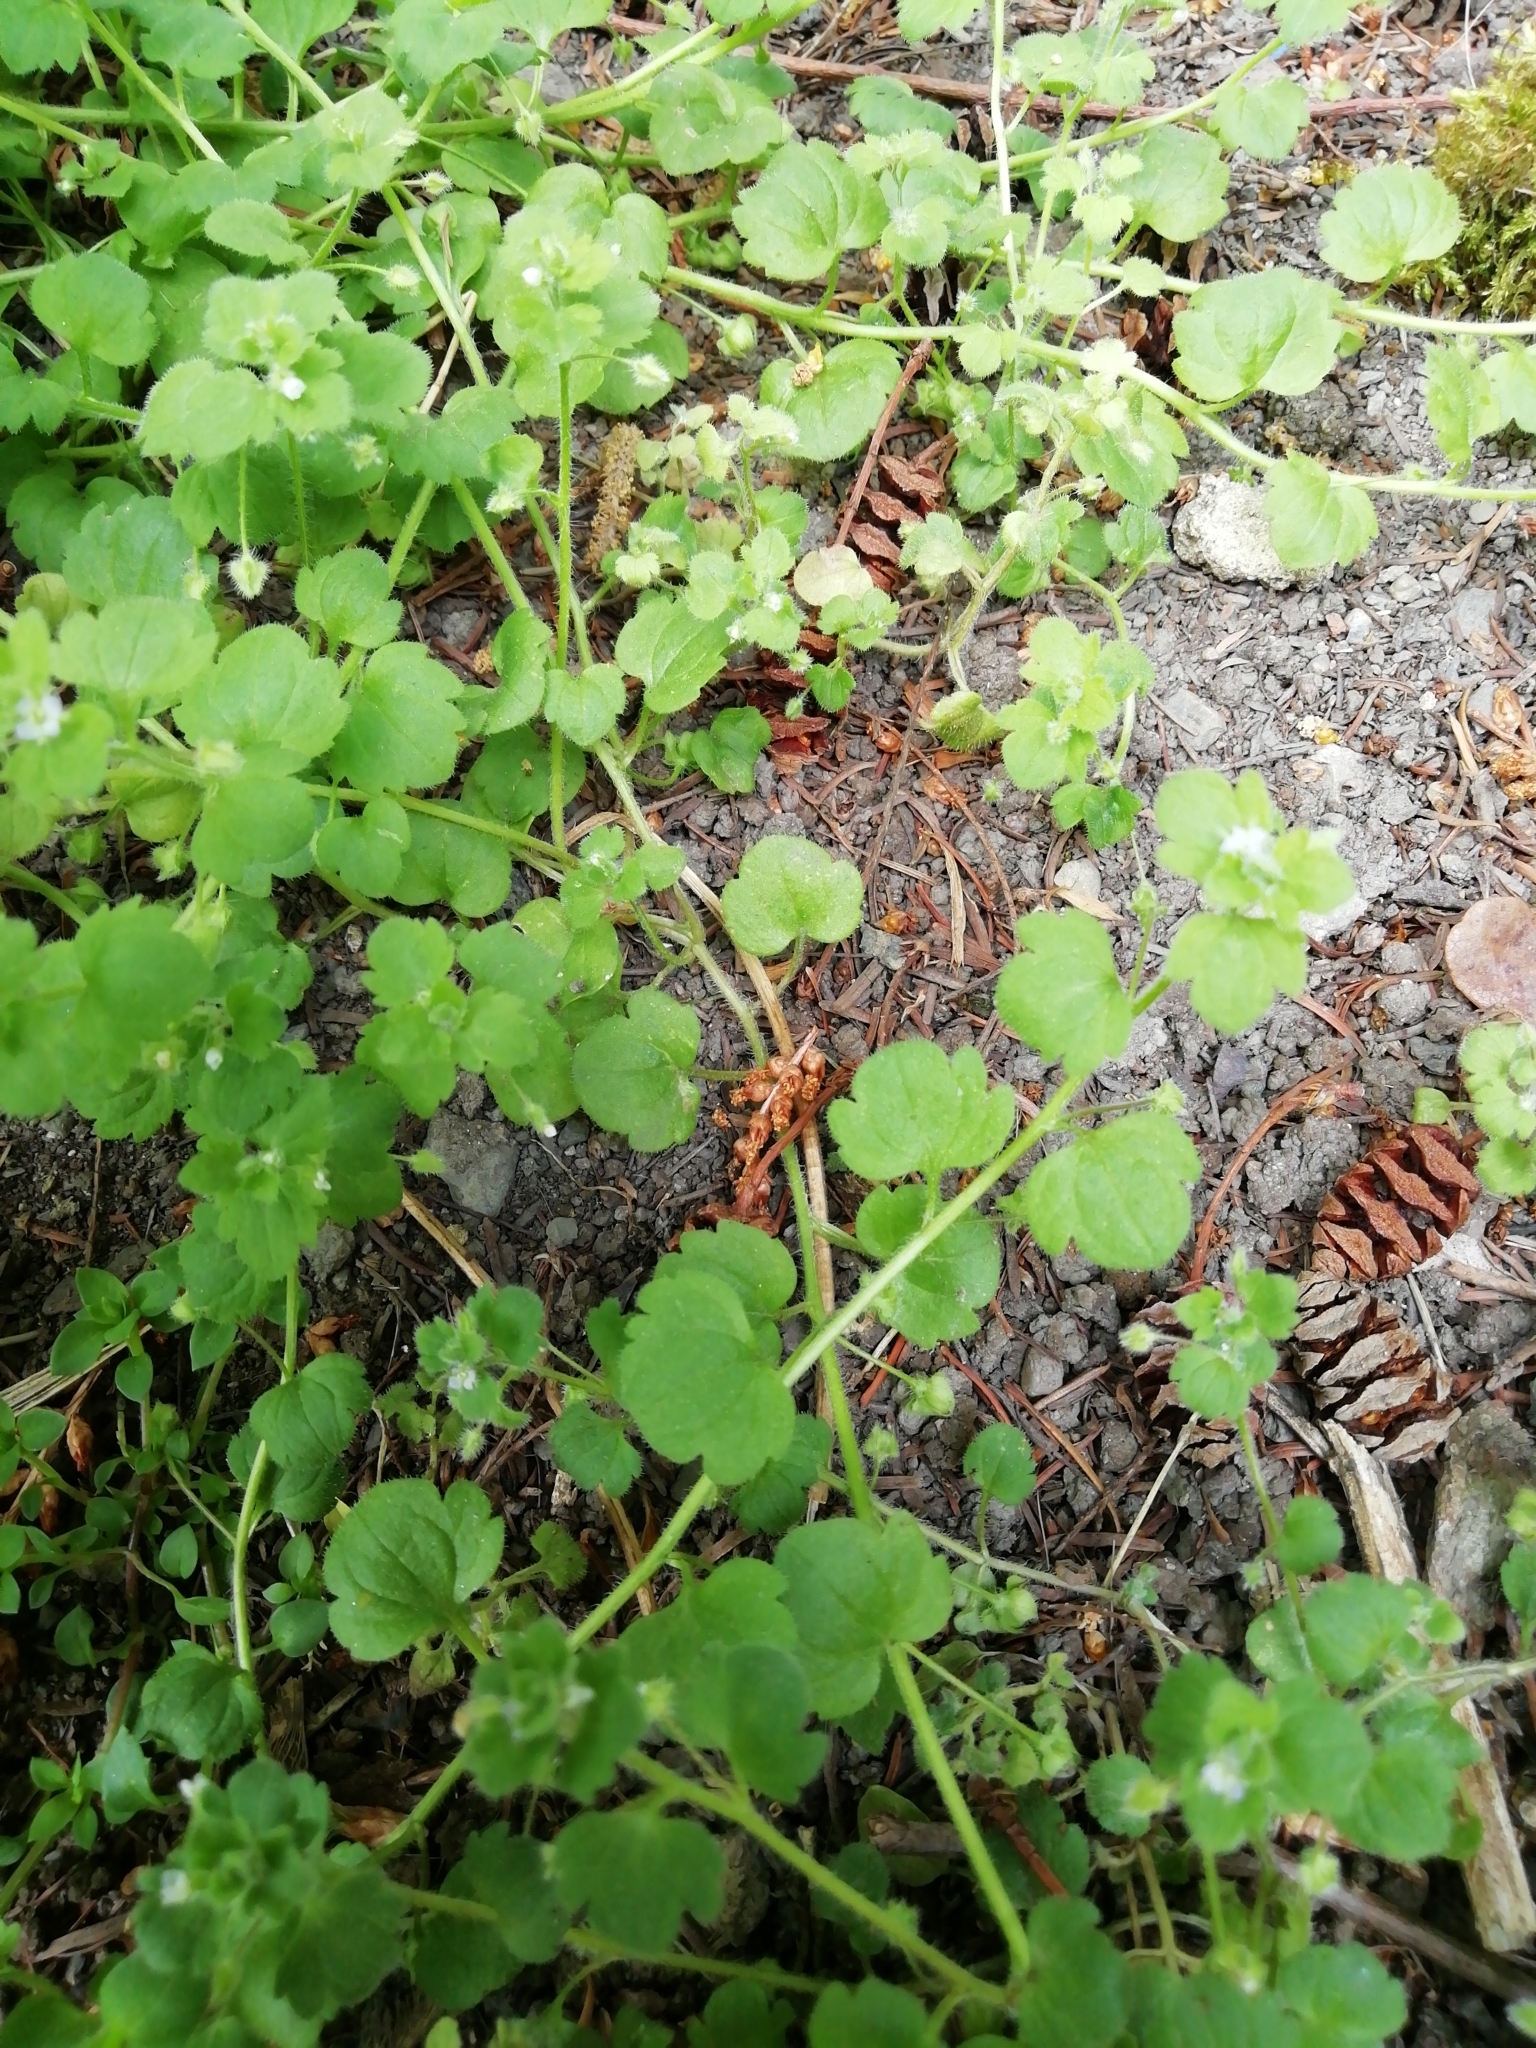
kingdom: Plantae
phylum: Tracheophyta
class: Magnoliopsida
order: Lamiales
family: Plantaginaceae
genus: Veronica
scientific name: Veronica sublobata
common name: False ivy-leaved speedwell
